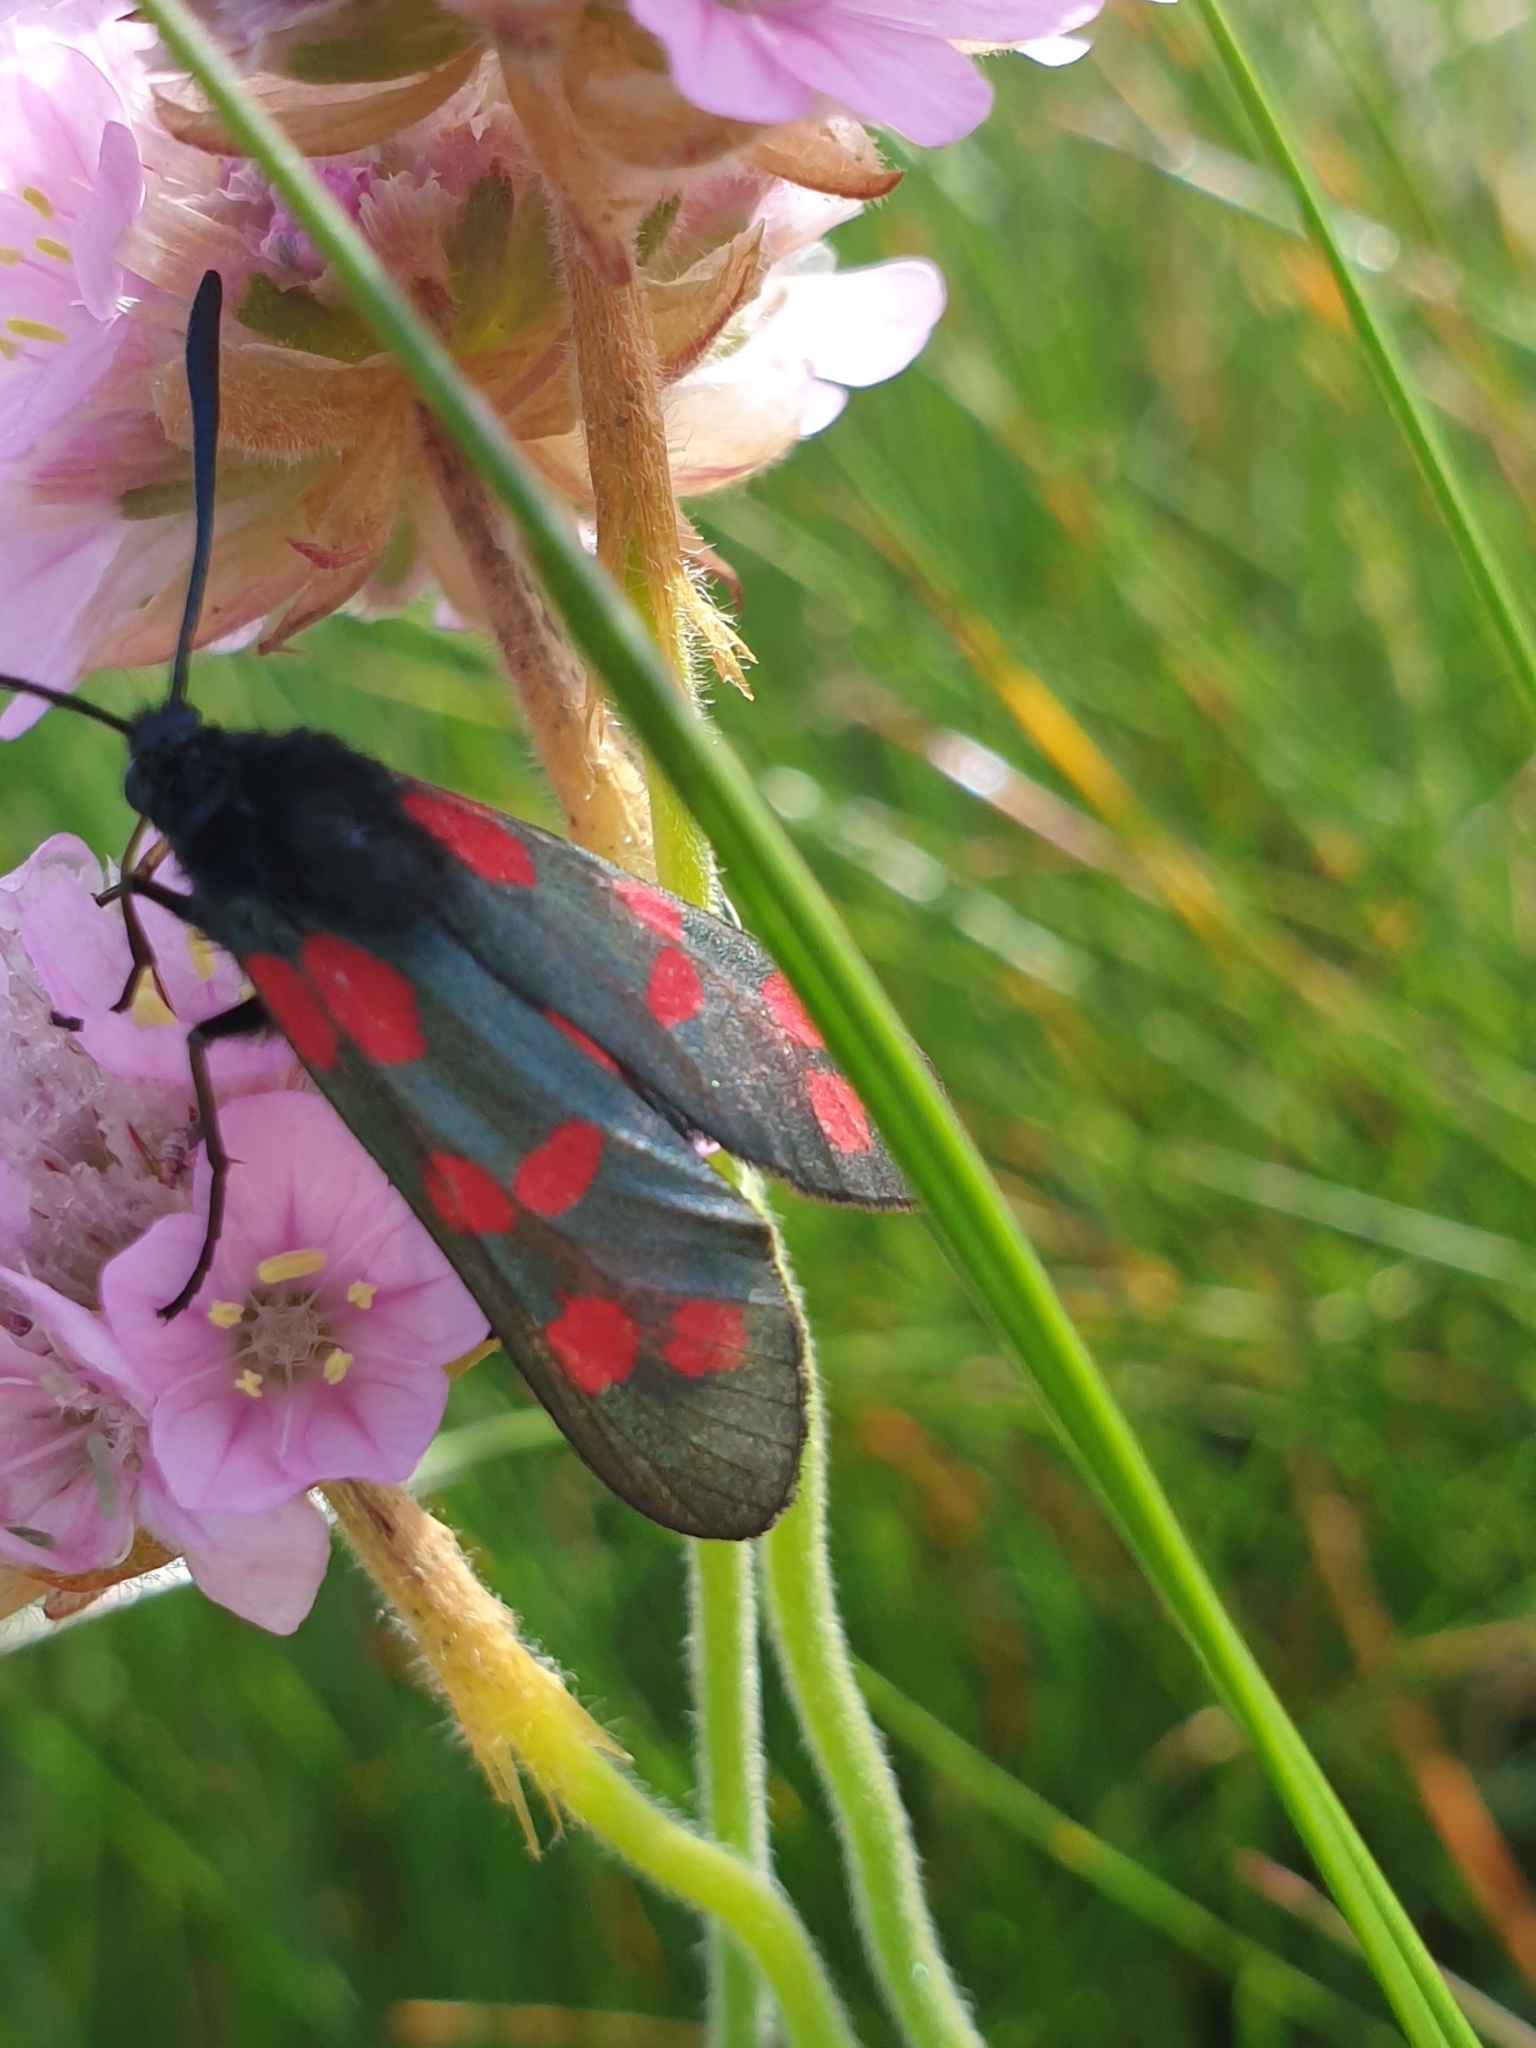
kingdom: Animalia
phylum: Arthropoda
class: Insecta
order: Lepidoptera
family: Zygaenidae
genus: Zygaena
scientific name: Zygaena filipendulae
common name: Six-spot burnet
